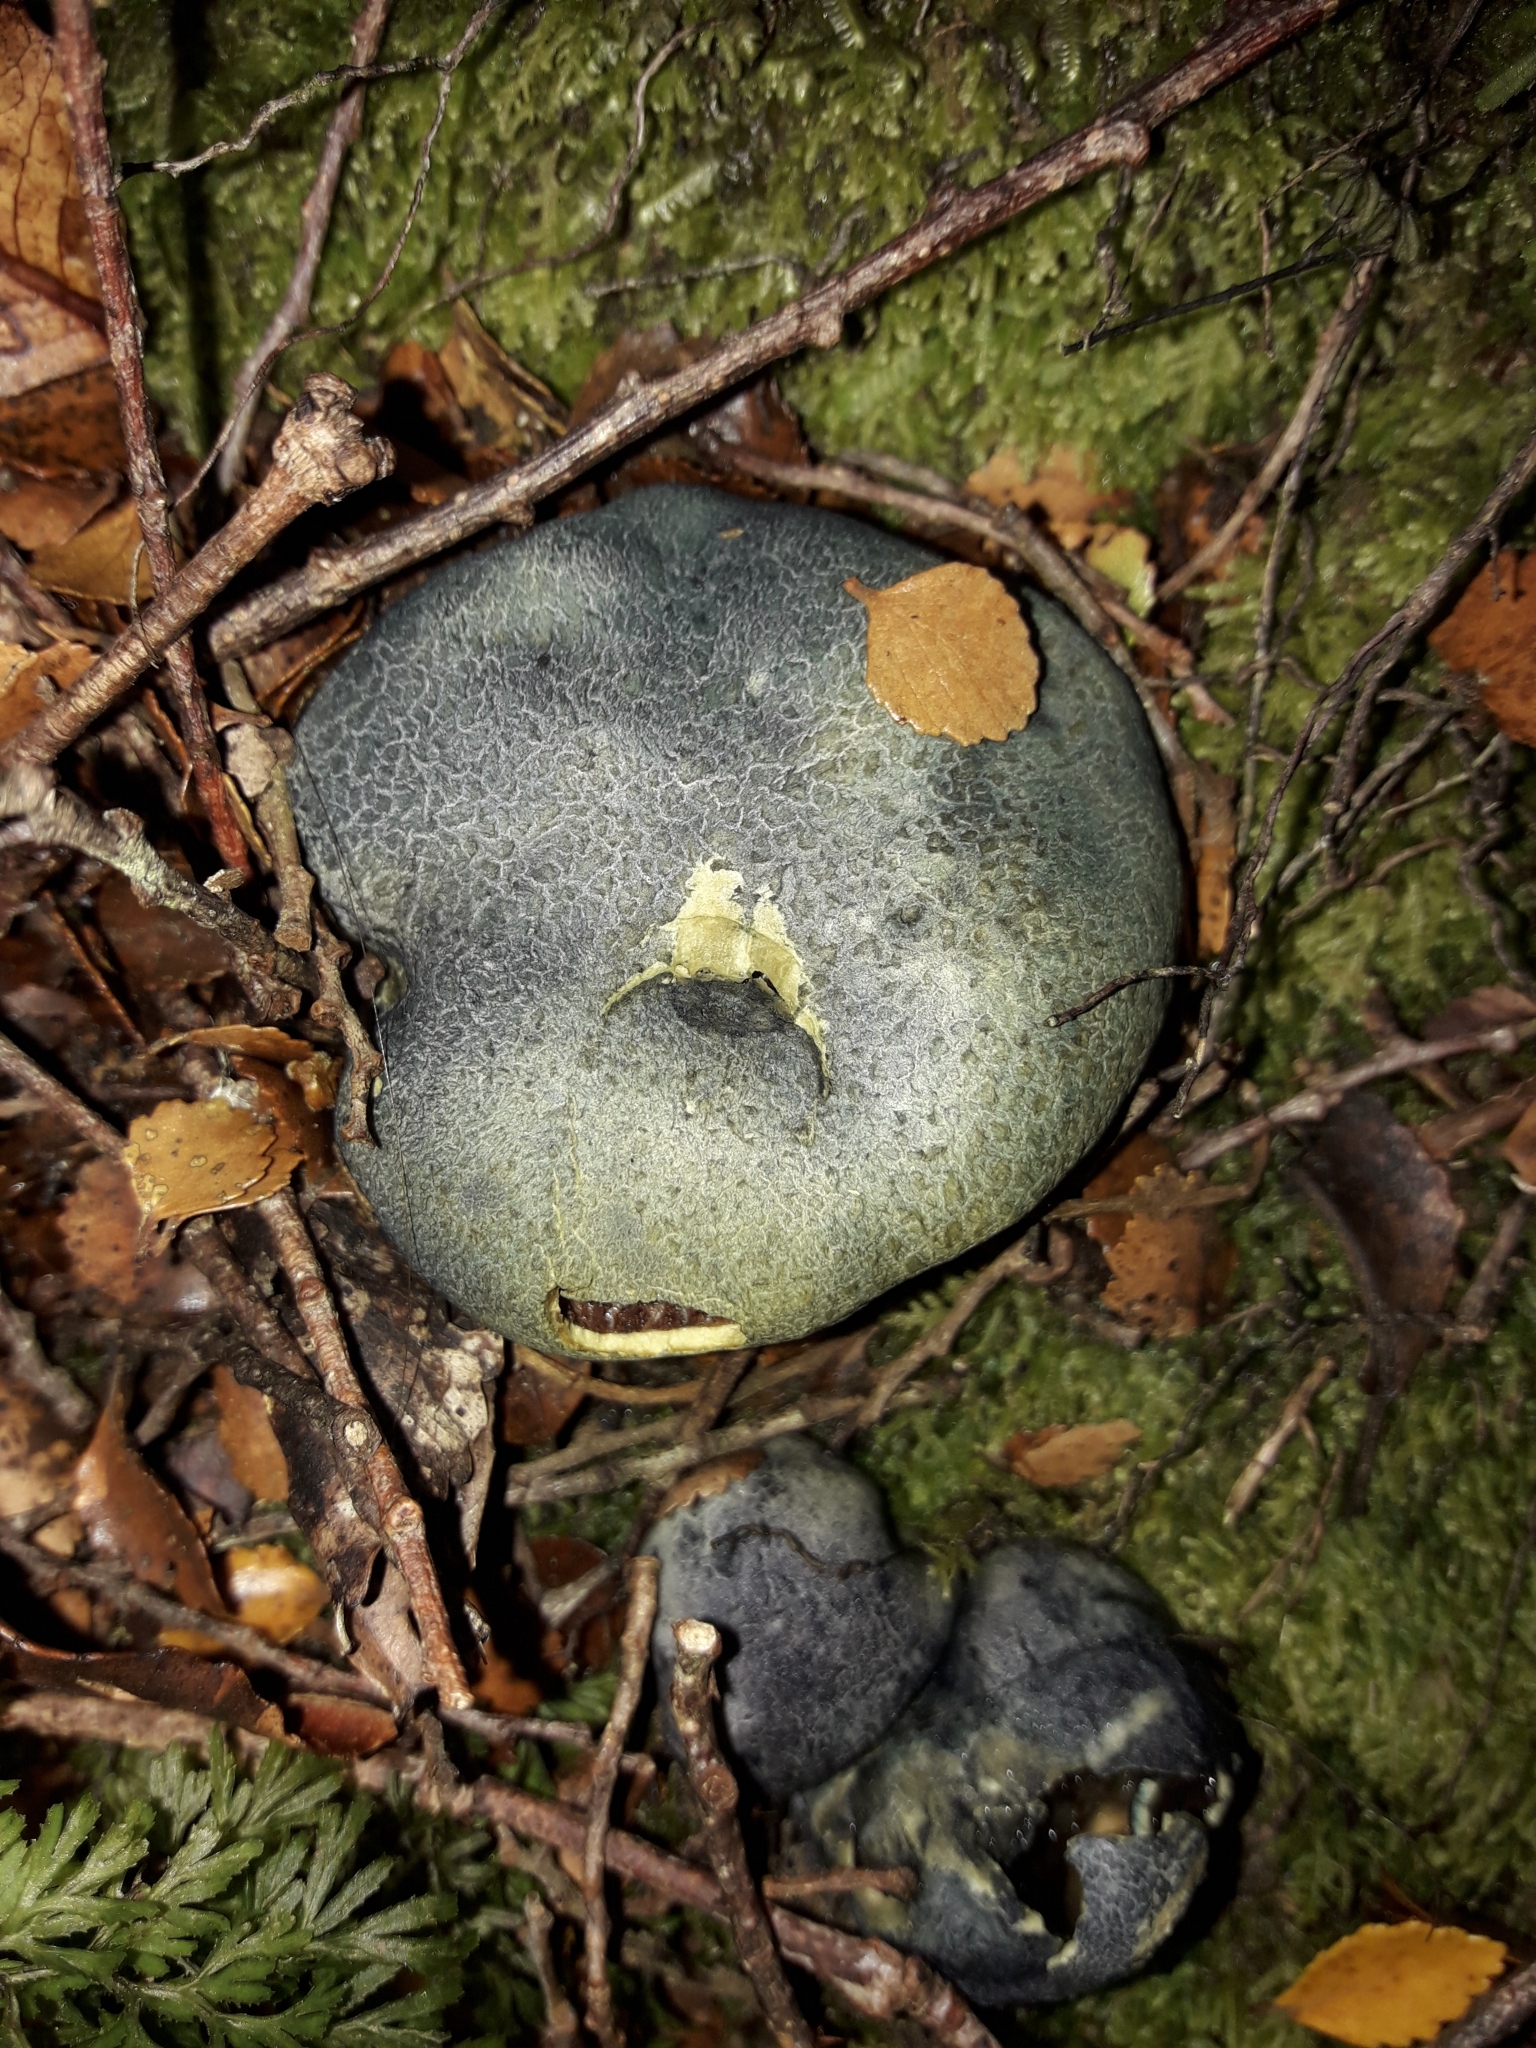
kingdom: Fungi
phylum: Basidiomycota
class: Agaricomycetes
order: Boletales
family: Boletaceae
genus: Leccinum
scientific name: Leccinum pachyderme
